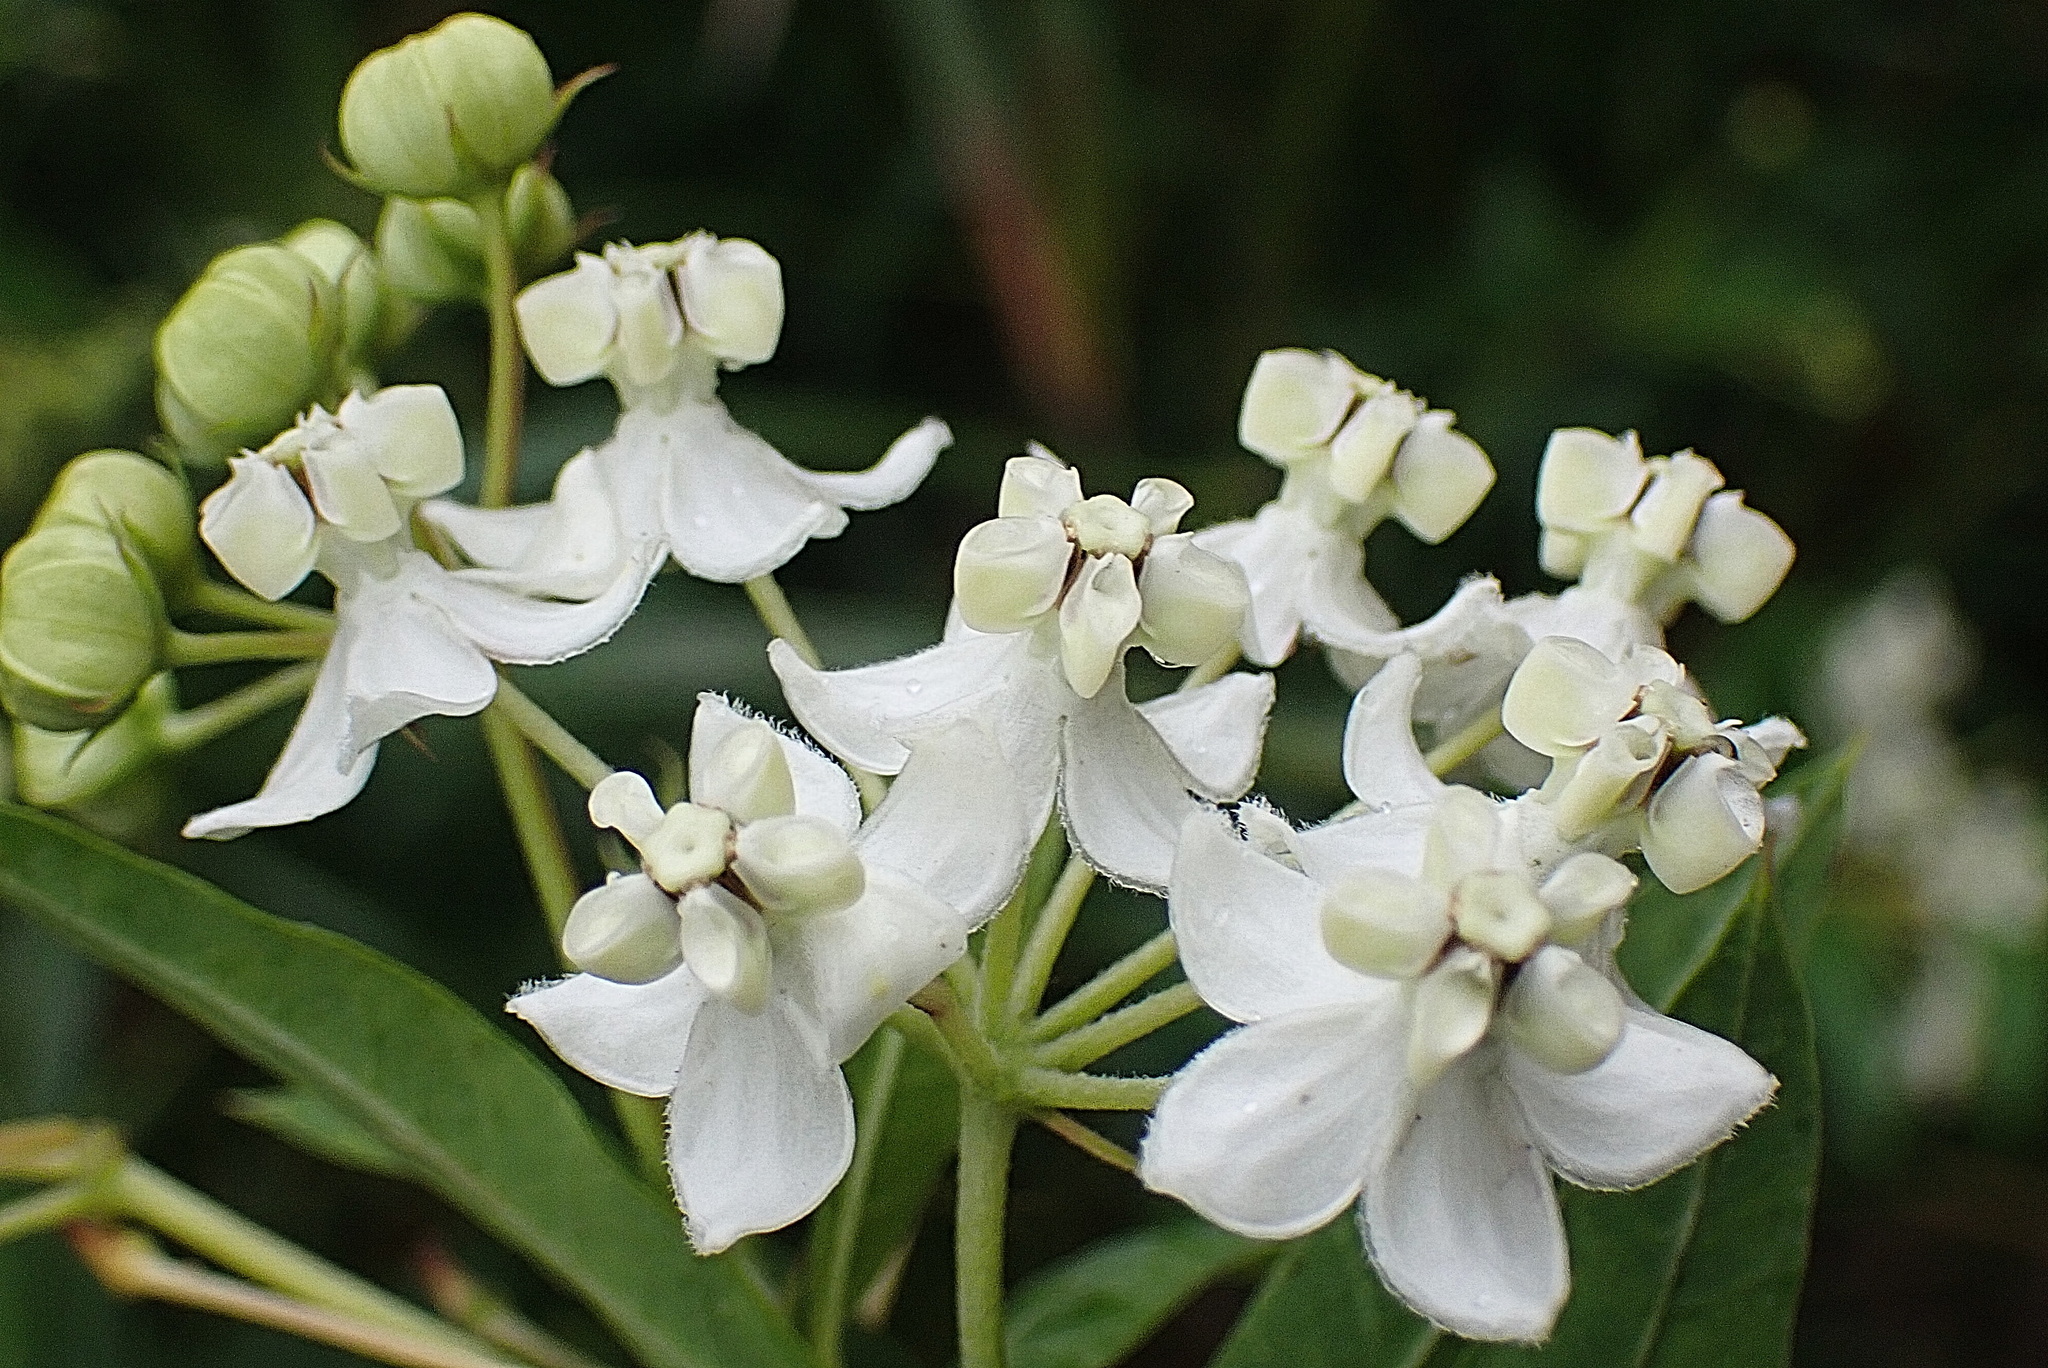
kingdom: Plantae
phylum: Tracheophyta
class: Magnoliopsida
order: Gentianales
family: Apocynaceae
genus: Gomphocarpus
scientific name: Gomphocarpus fruticosus
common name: Milkweed
